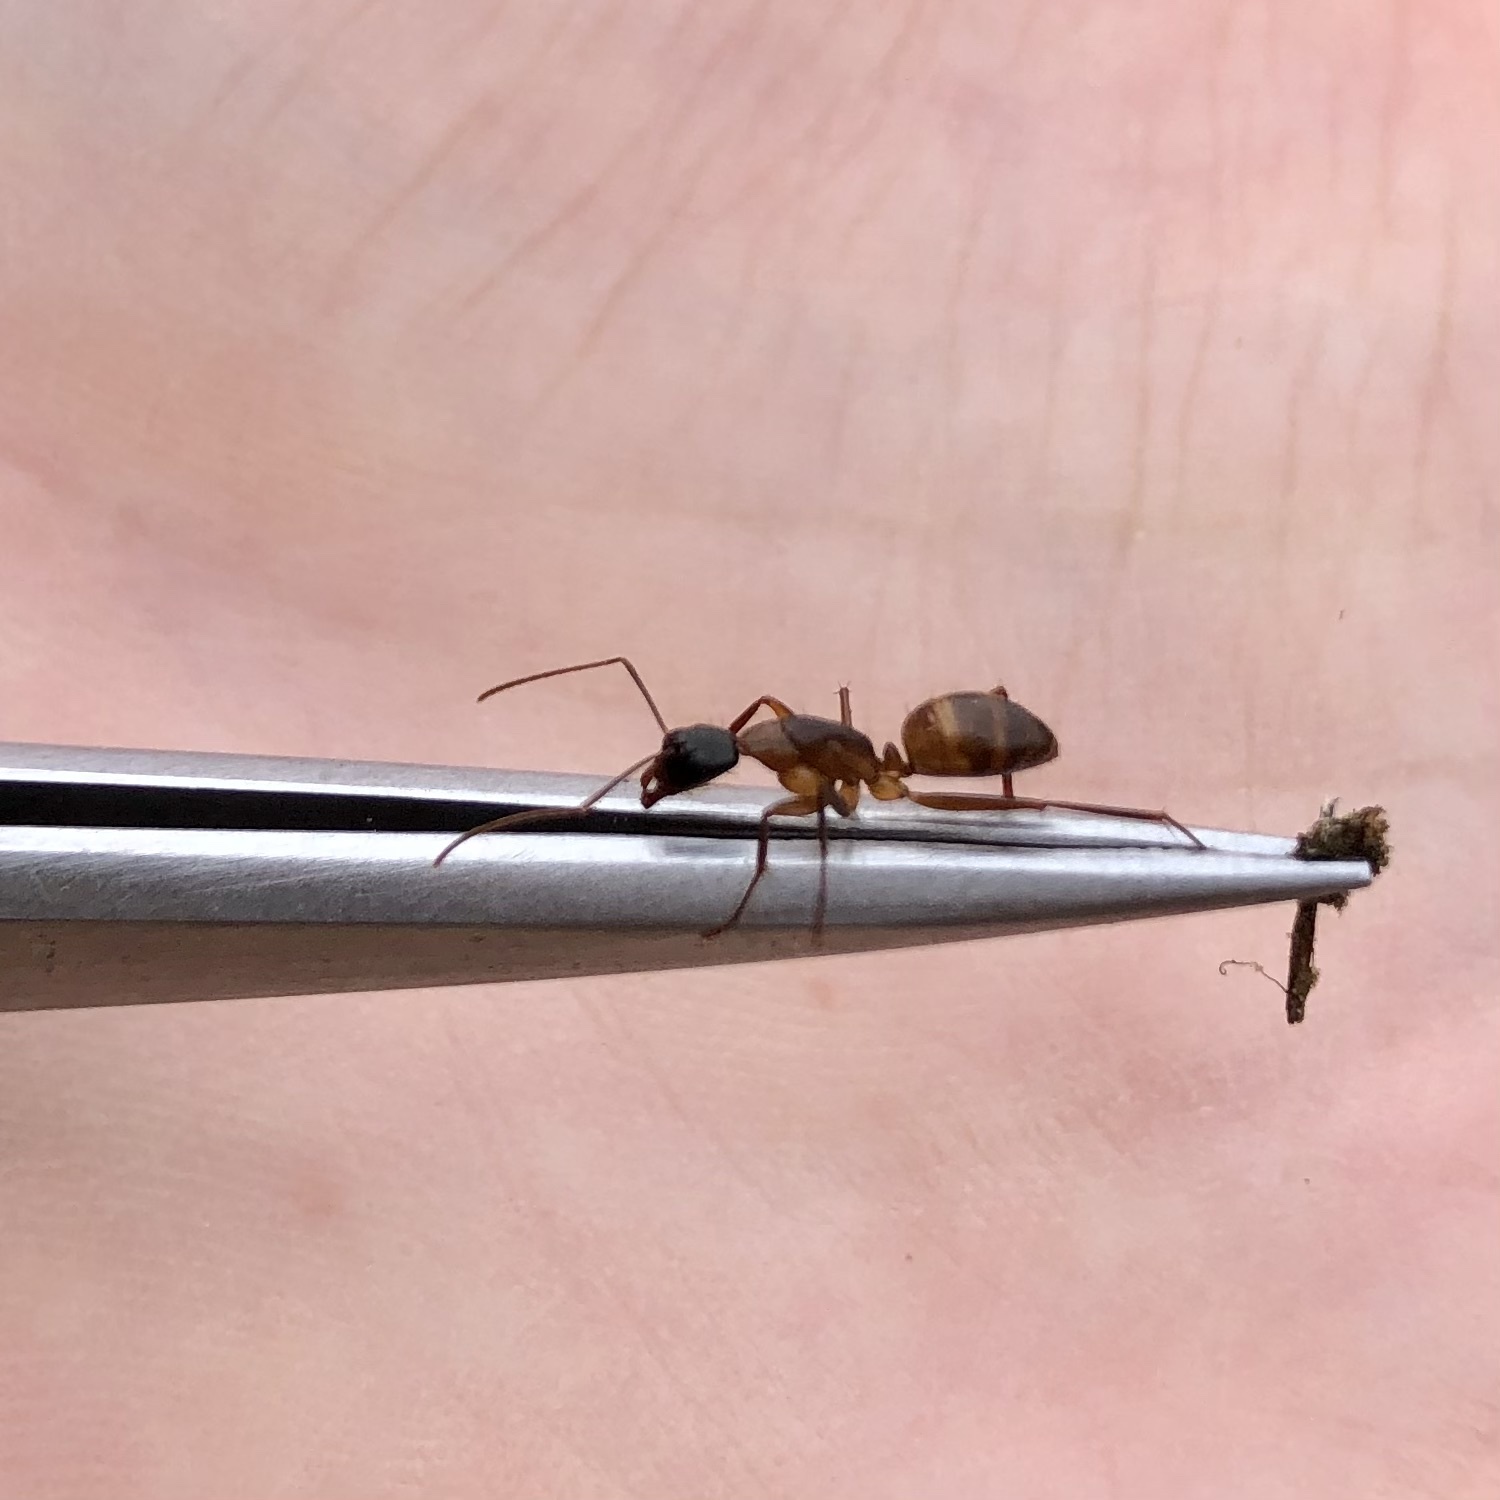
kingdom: Animalia
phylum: Arthropoda
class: Insecta
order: Hymenoptera
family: Formicidae
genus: Camponotus
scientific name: Camponotus americanus
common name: American carpenter ant
